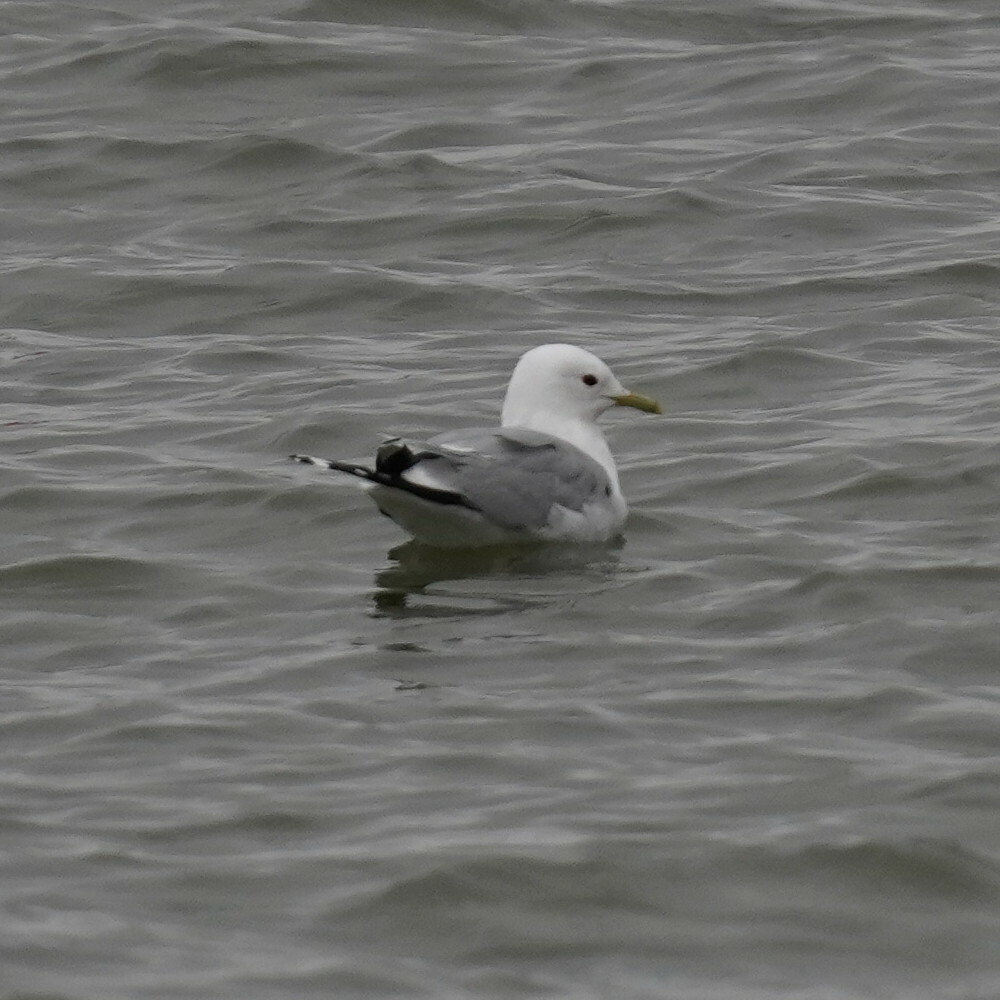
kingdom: Animalia
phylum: Chordata
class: Aves
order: Charadriiformes
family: Laridae
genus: Larus
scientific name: Larus canus
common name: Mew gull
